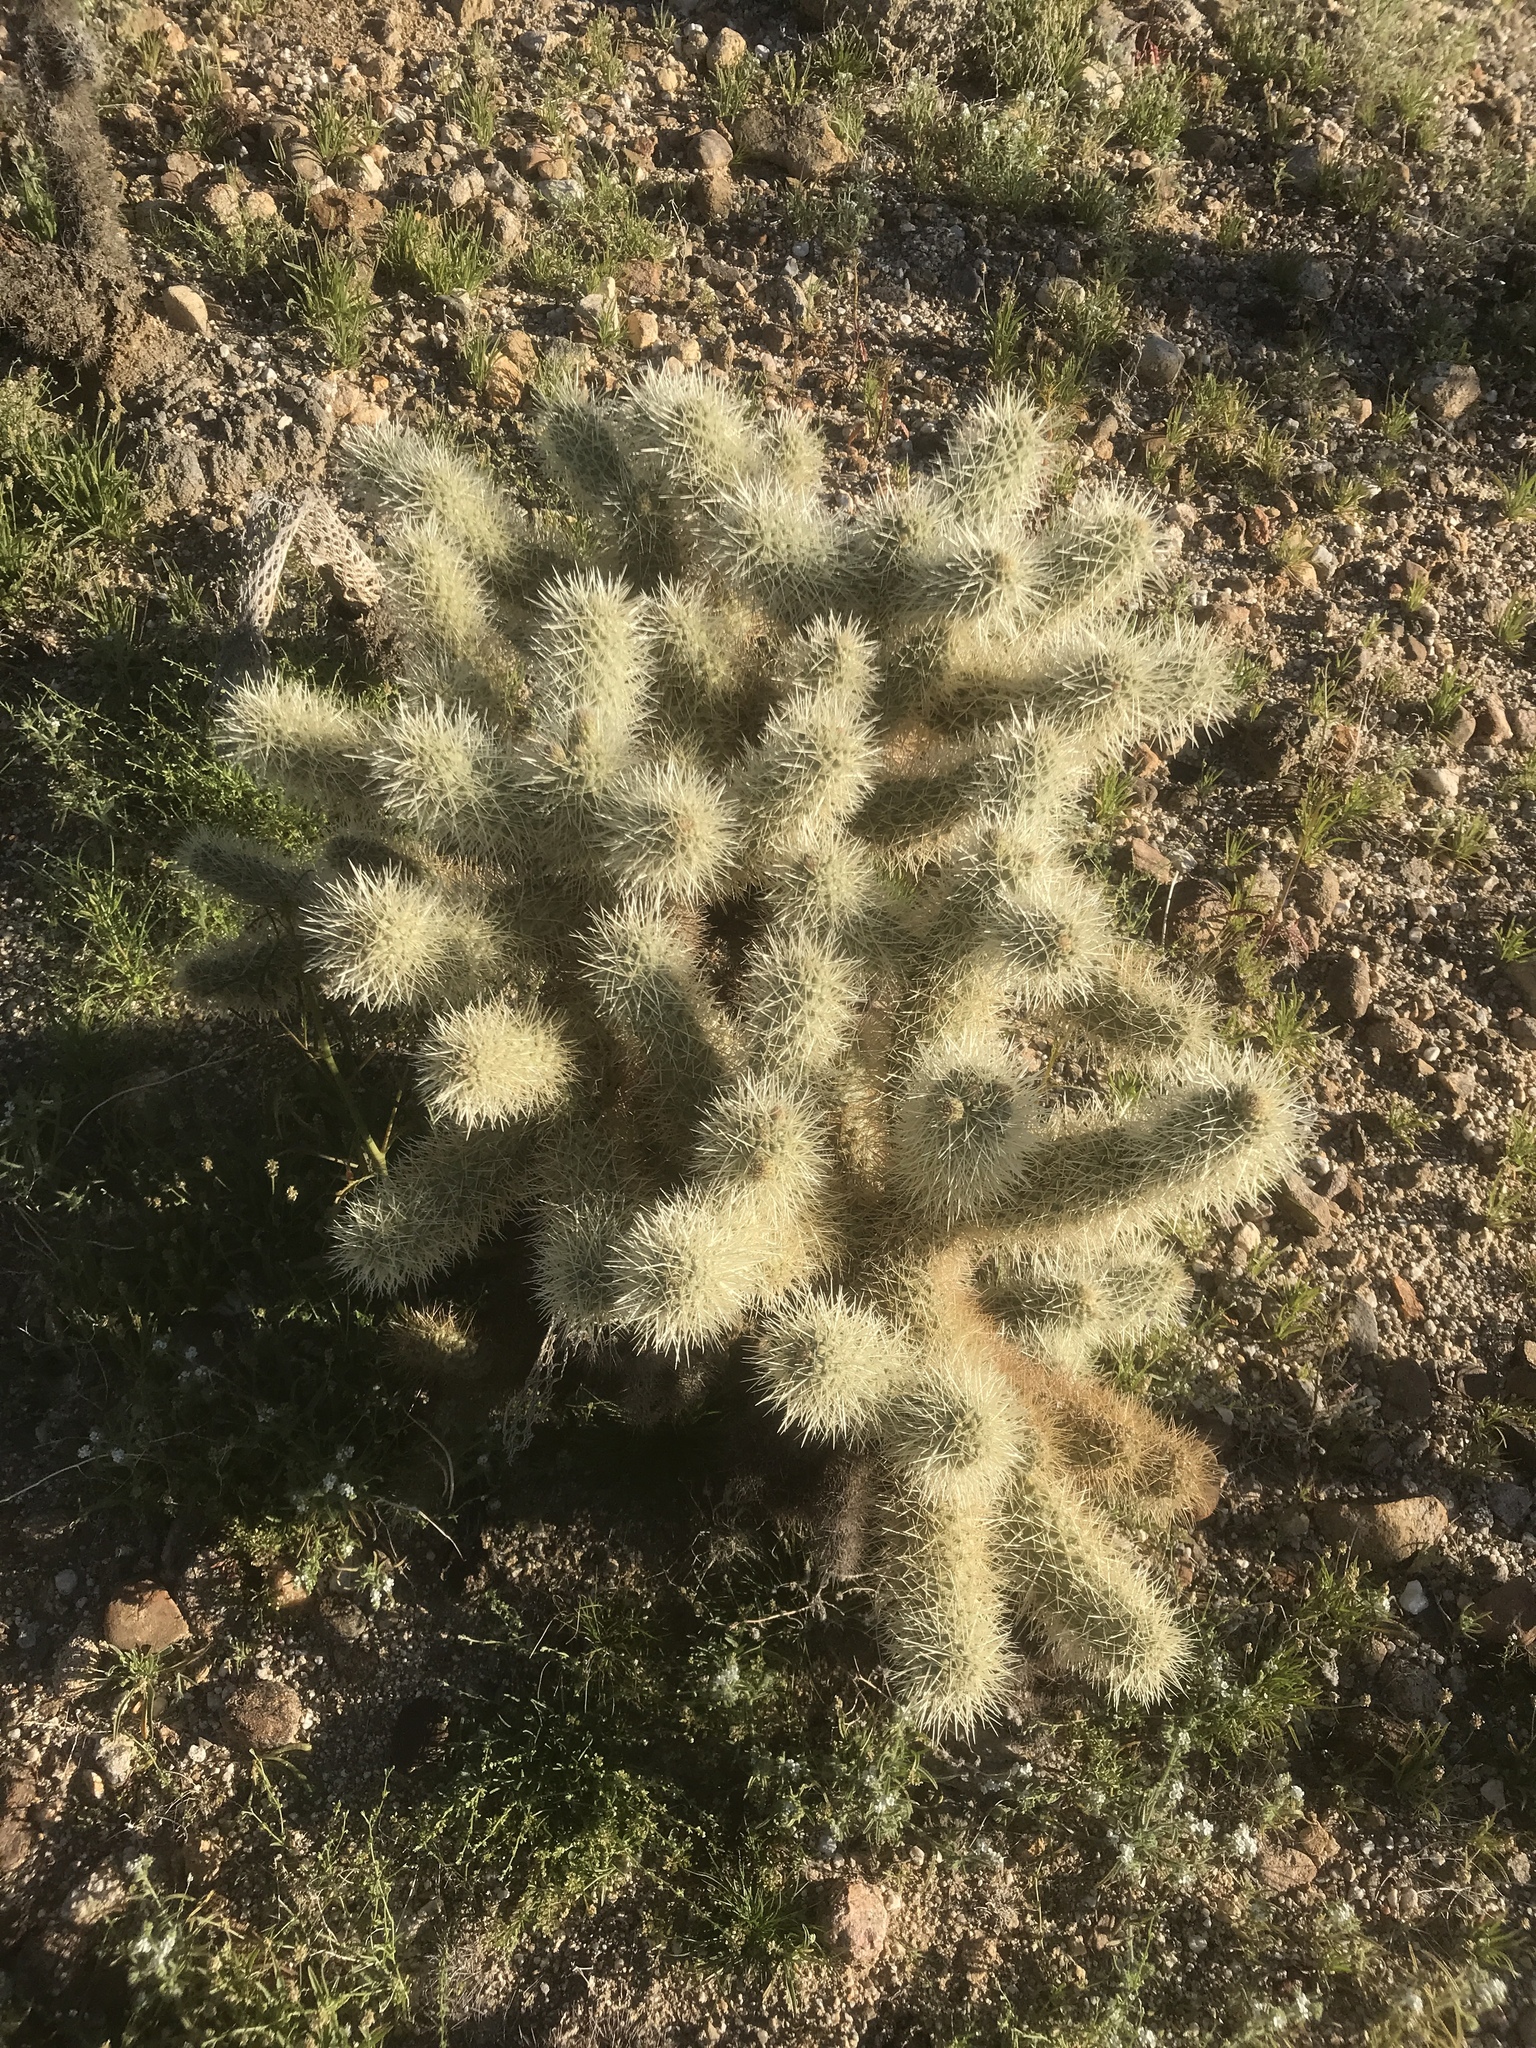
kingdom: Plantae
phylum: Tracheophyta
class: Magnoliopsida
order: Caryophyllales
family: Cactaceae
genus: Cylindropuntia
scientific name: Cylindropuntia fosbergii
